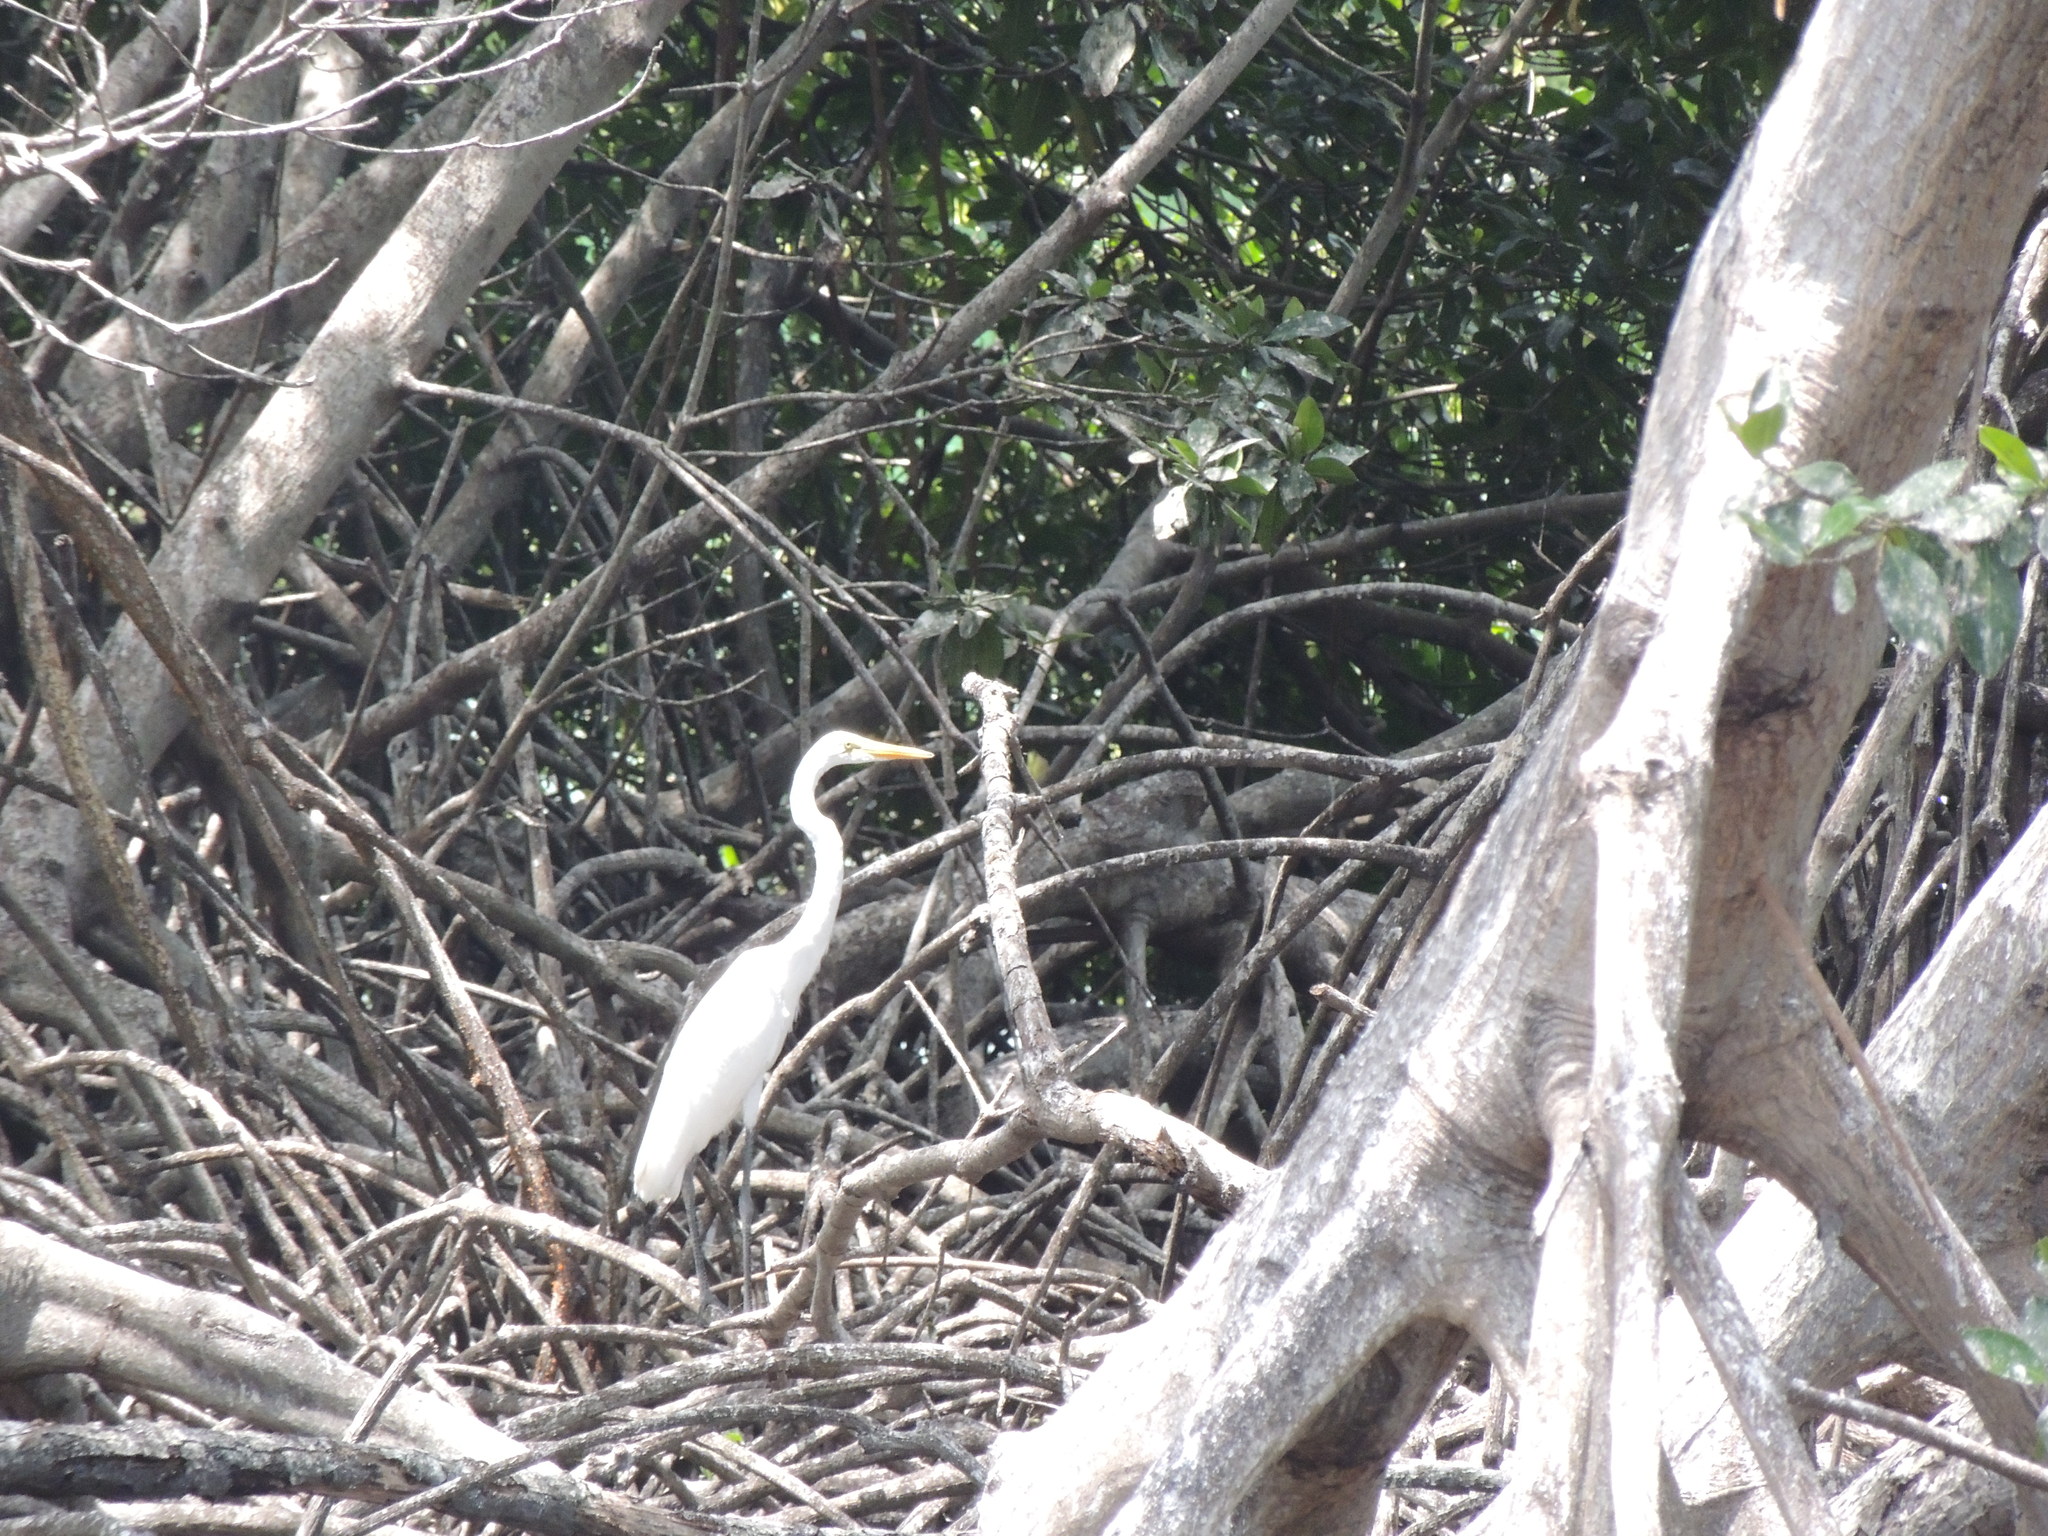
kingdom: Animalia
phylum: Chordata
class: Aves
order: Pelecaniformes
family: Ardeidae
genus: Ardea
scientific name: Ardea alba
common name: Great egret
